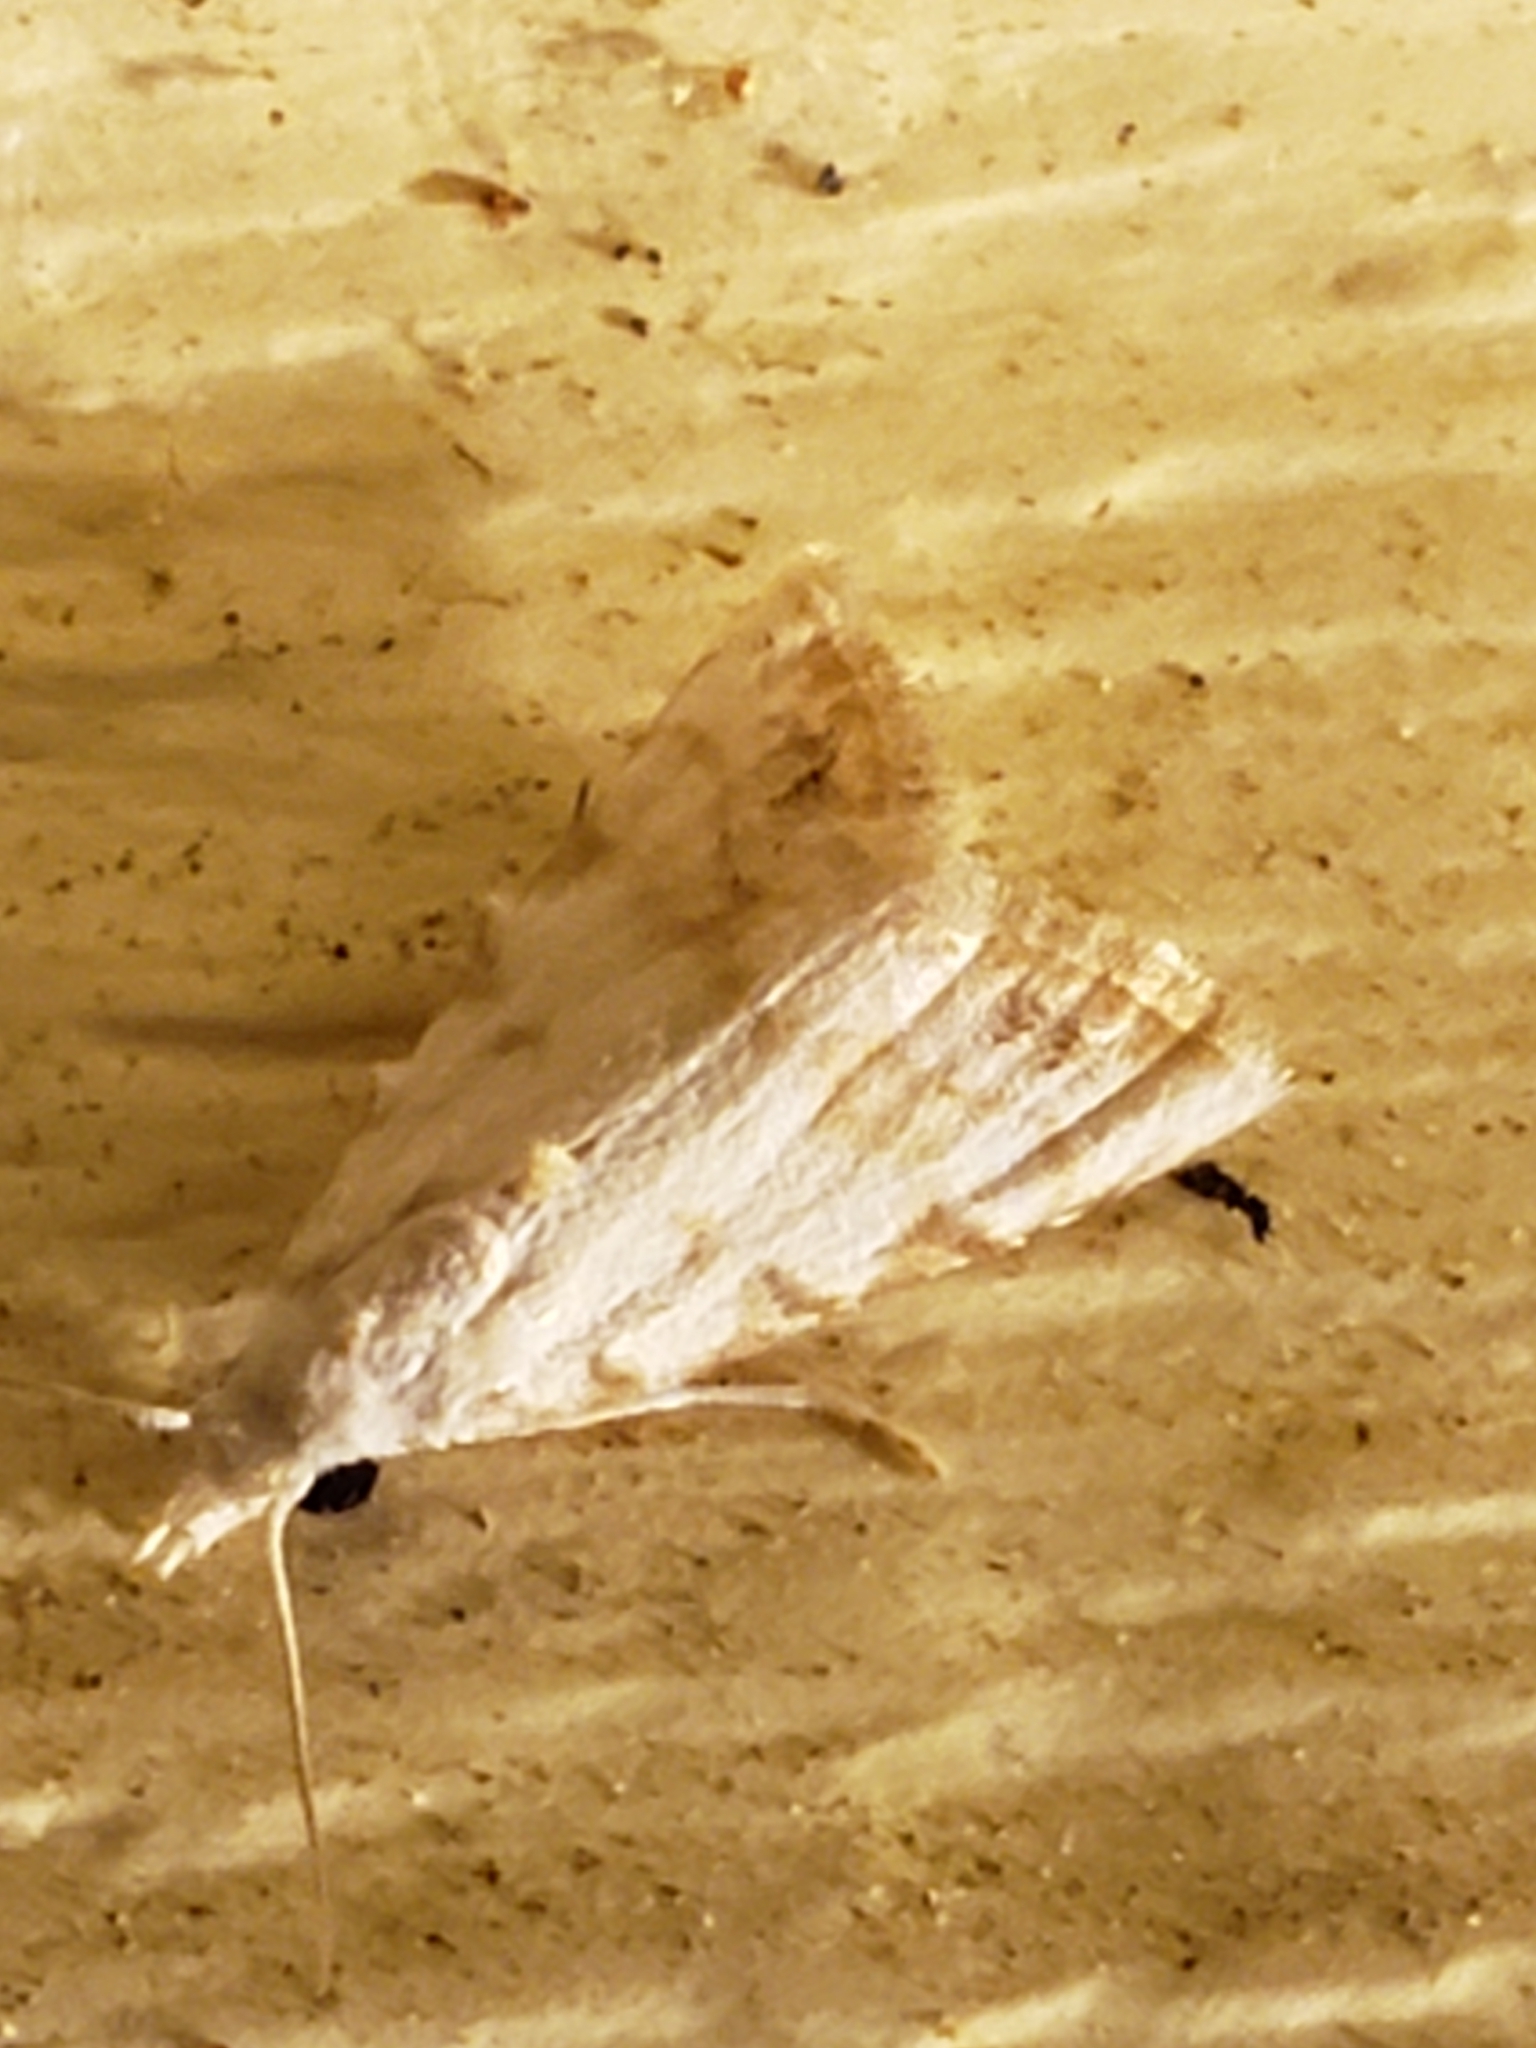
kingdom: Animalia
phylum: Arthropoda
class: Insecta
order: Lepidoptera
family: Nolidae
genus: Nola
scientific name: Nola cereella
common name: Sorghum webworm moth
